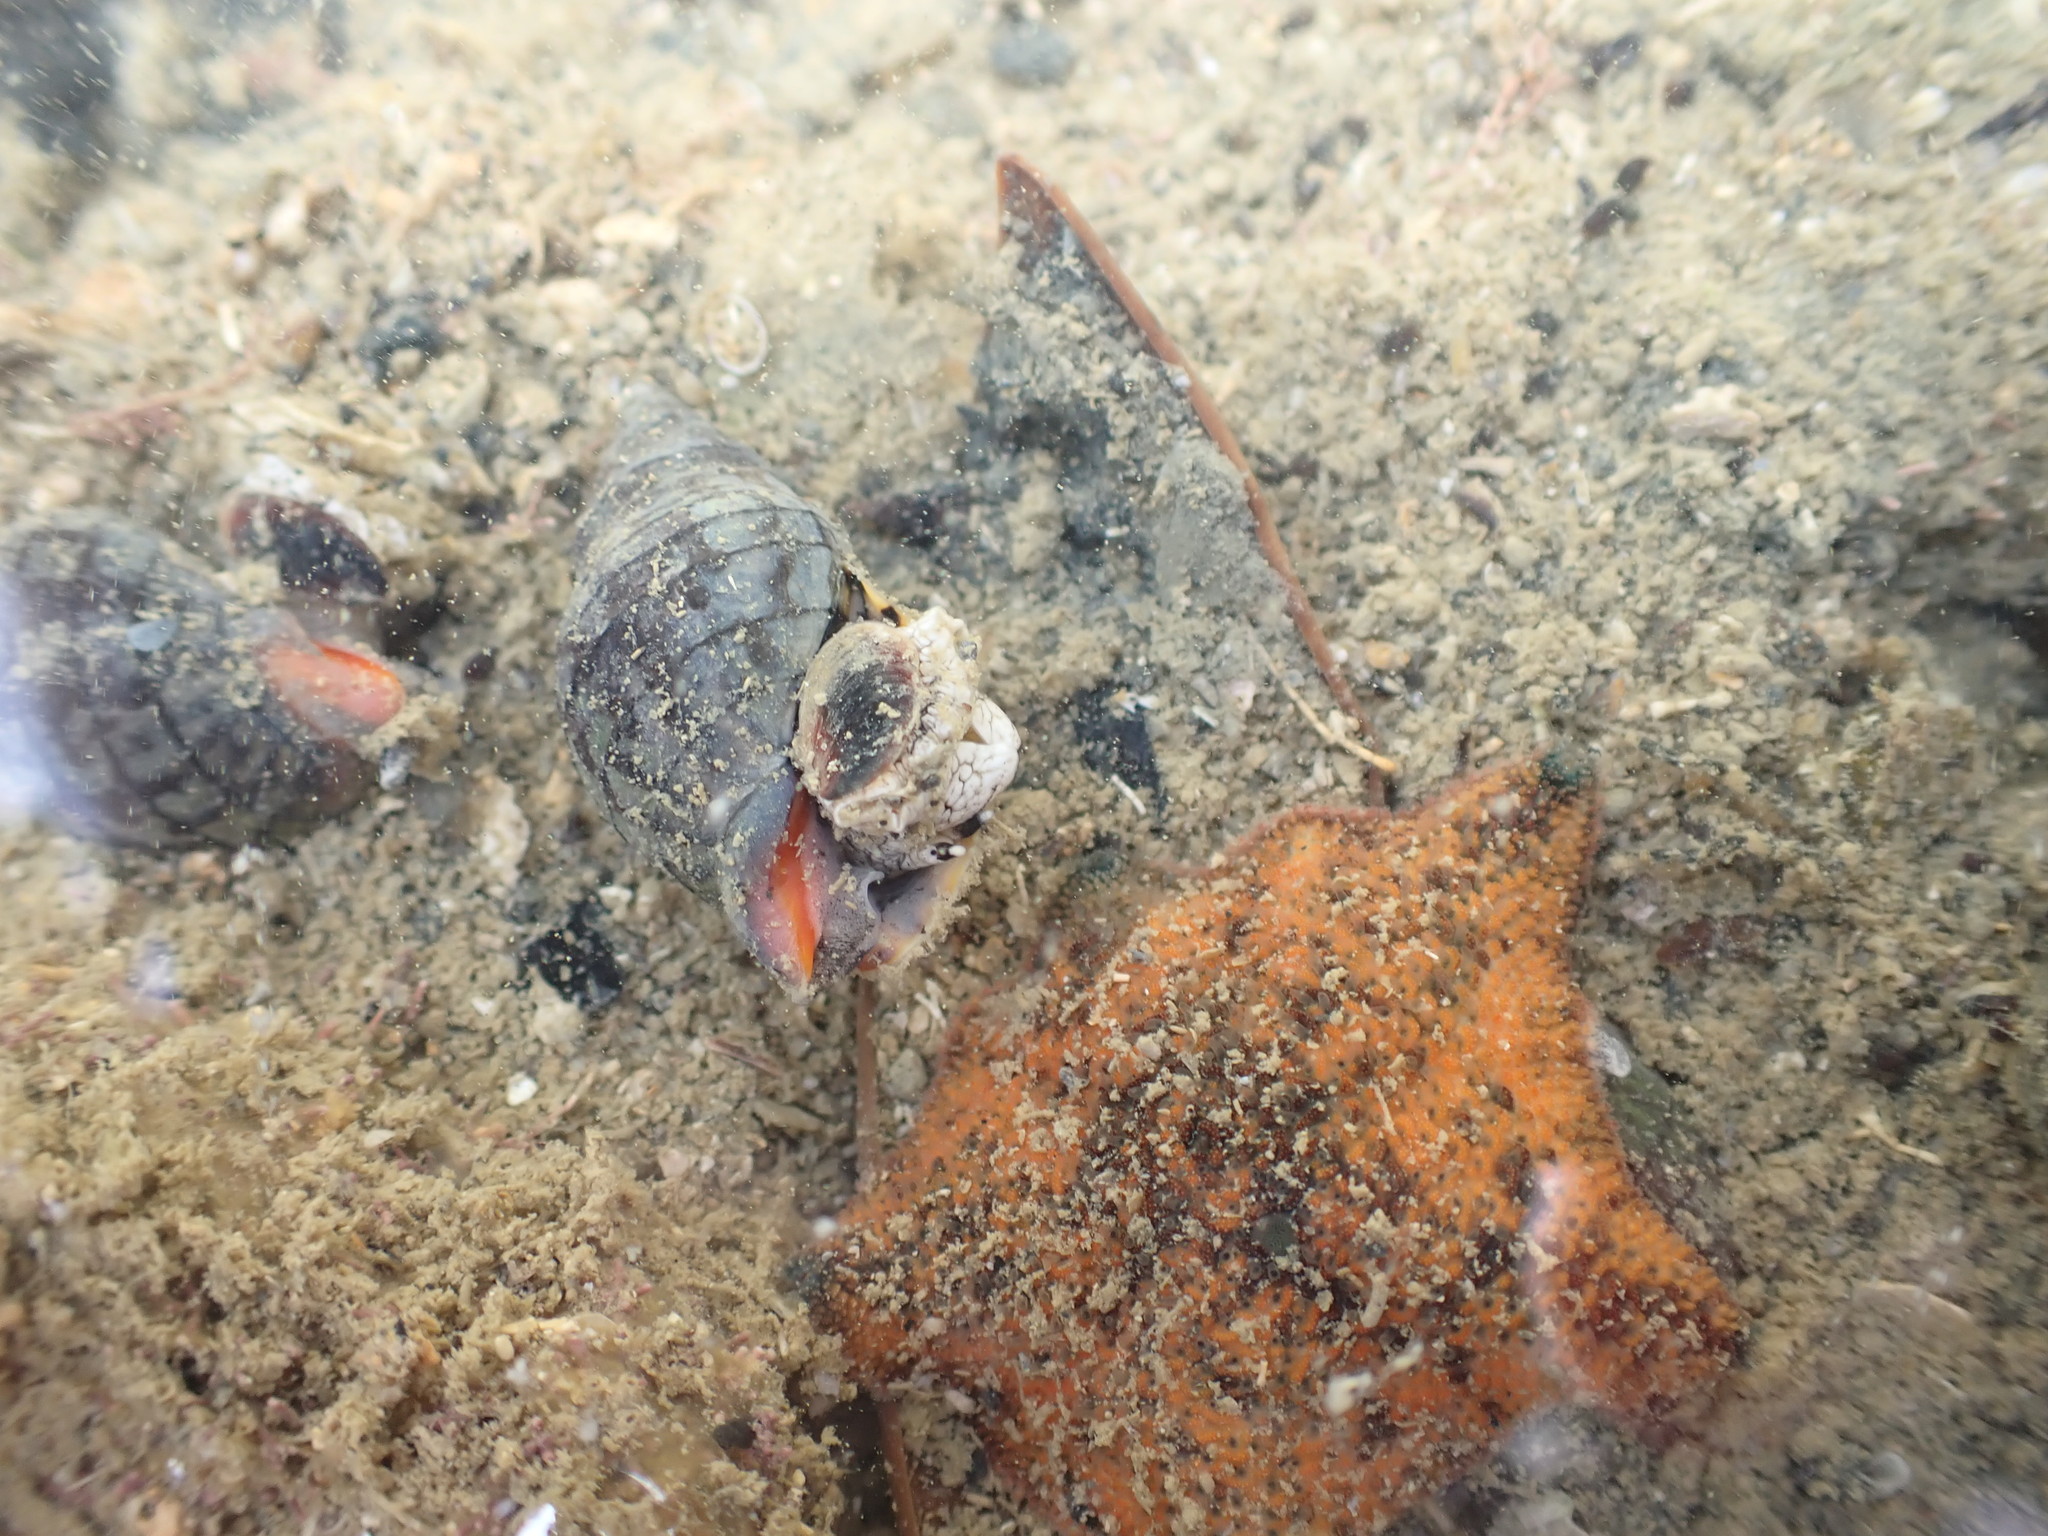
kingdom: Animalia
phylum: Mollusca
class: Gastropoda
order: Neogastropoda
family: Cominellidae
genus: Cominella
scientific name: Cominella virgata
